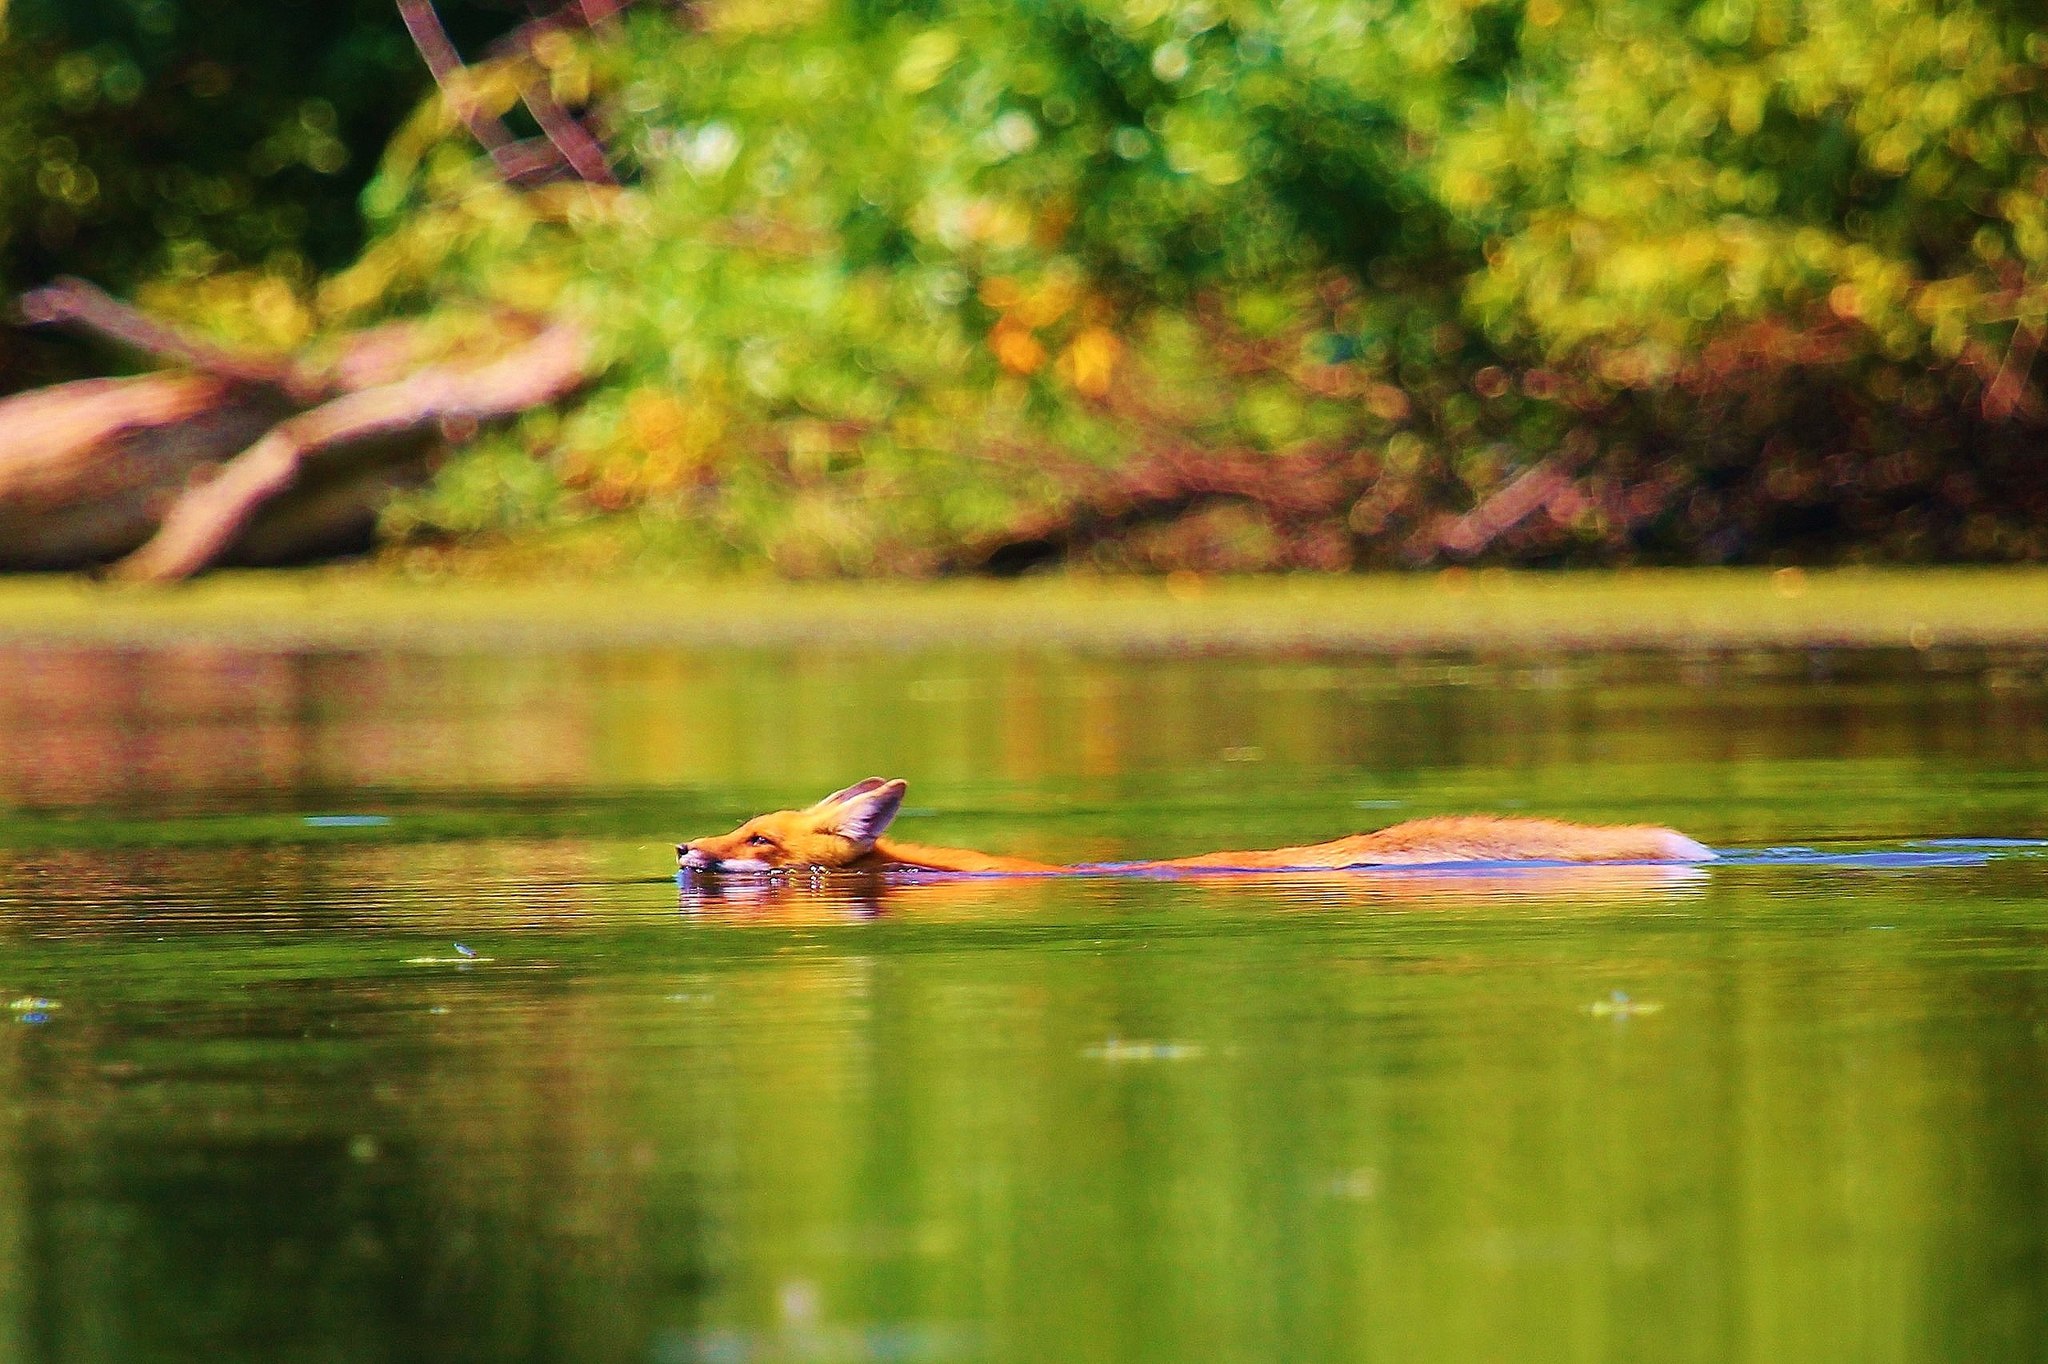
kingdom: Animalia
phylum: Chordata
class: Mammalia
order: Carnivora
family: Canidae
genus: Vulpes
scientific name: Vulpes vulpes
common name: Red fox
